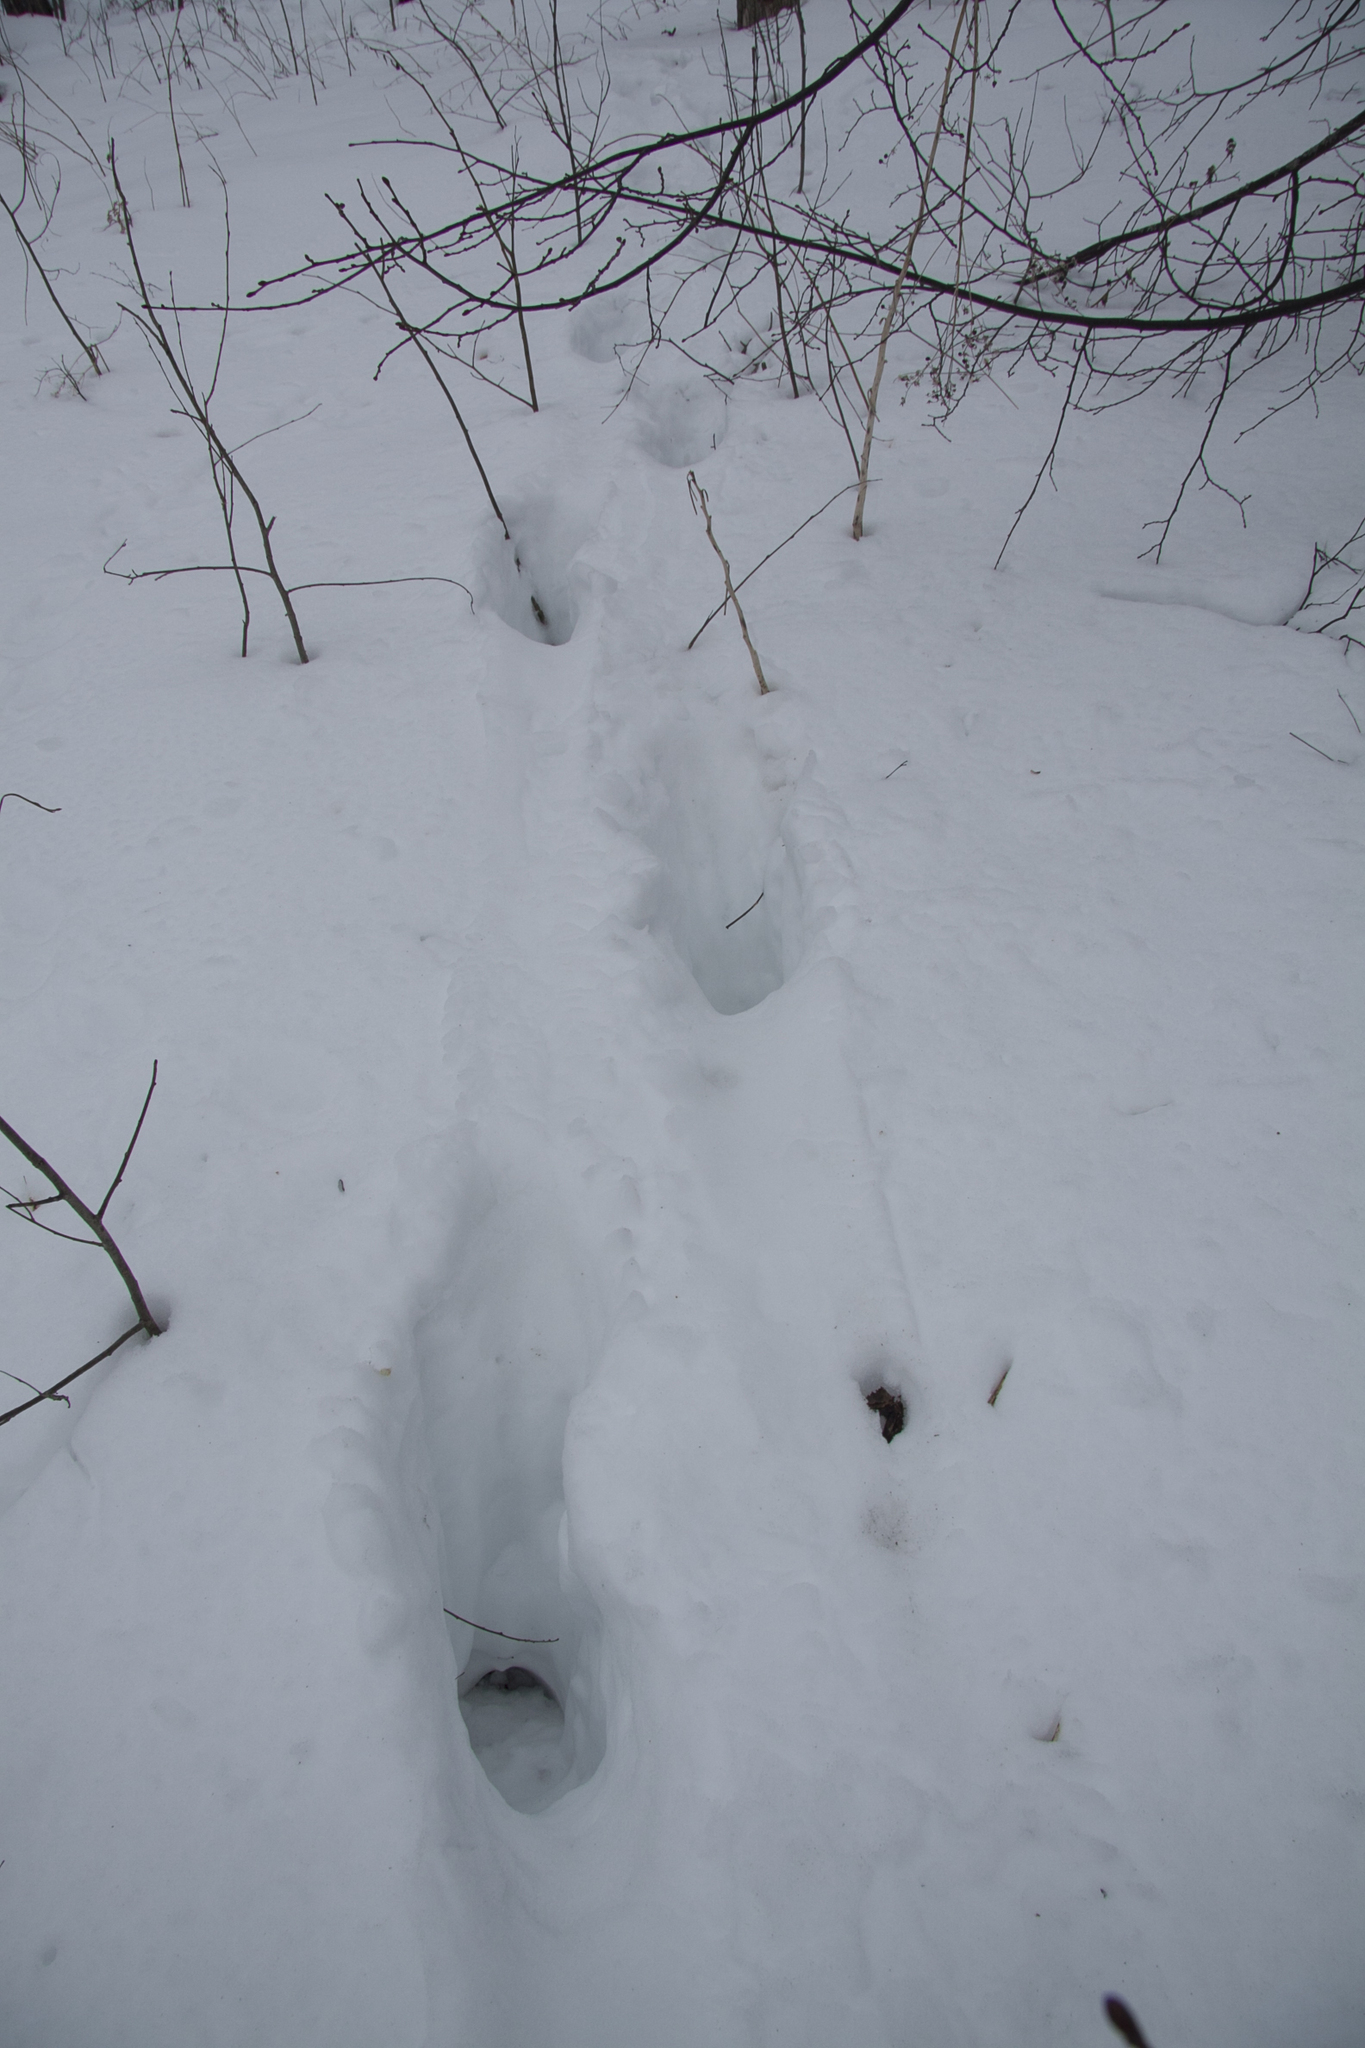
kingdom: Animalia
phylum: Chordata
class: Mammalia
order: Artiodactyla
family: Cervidae
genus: Alces
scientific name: Alces alces
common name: Moose
